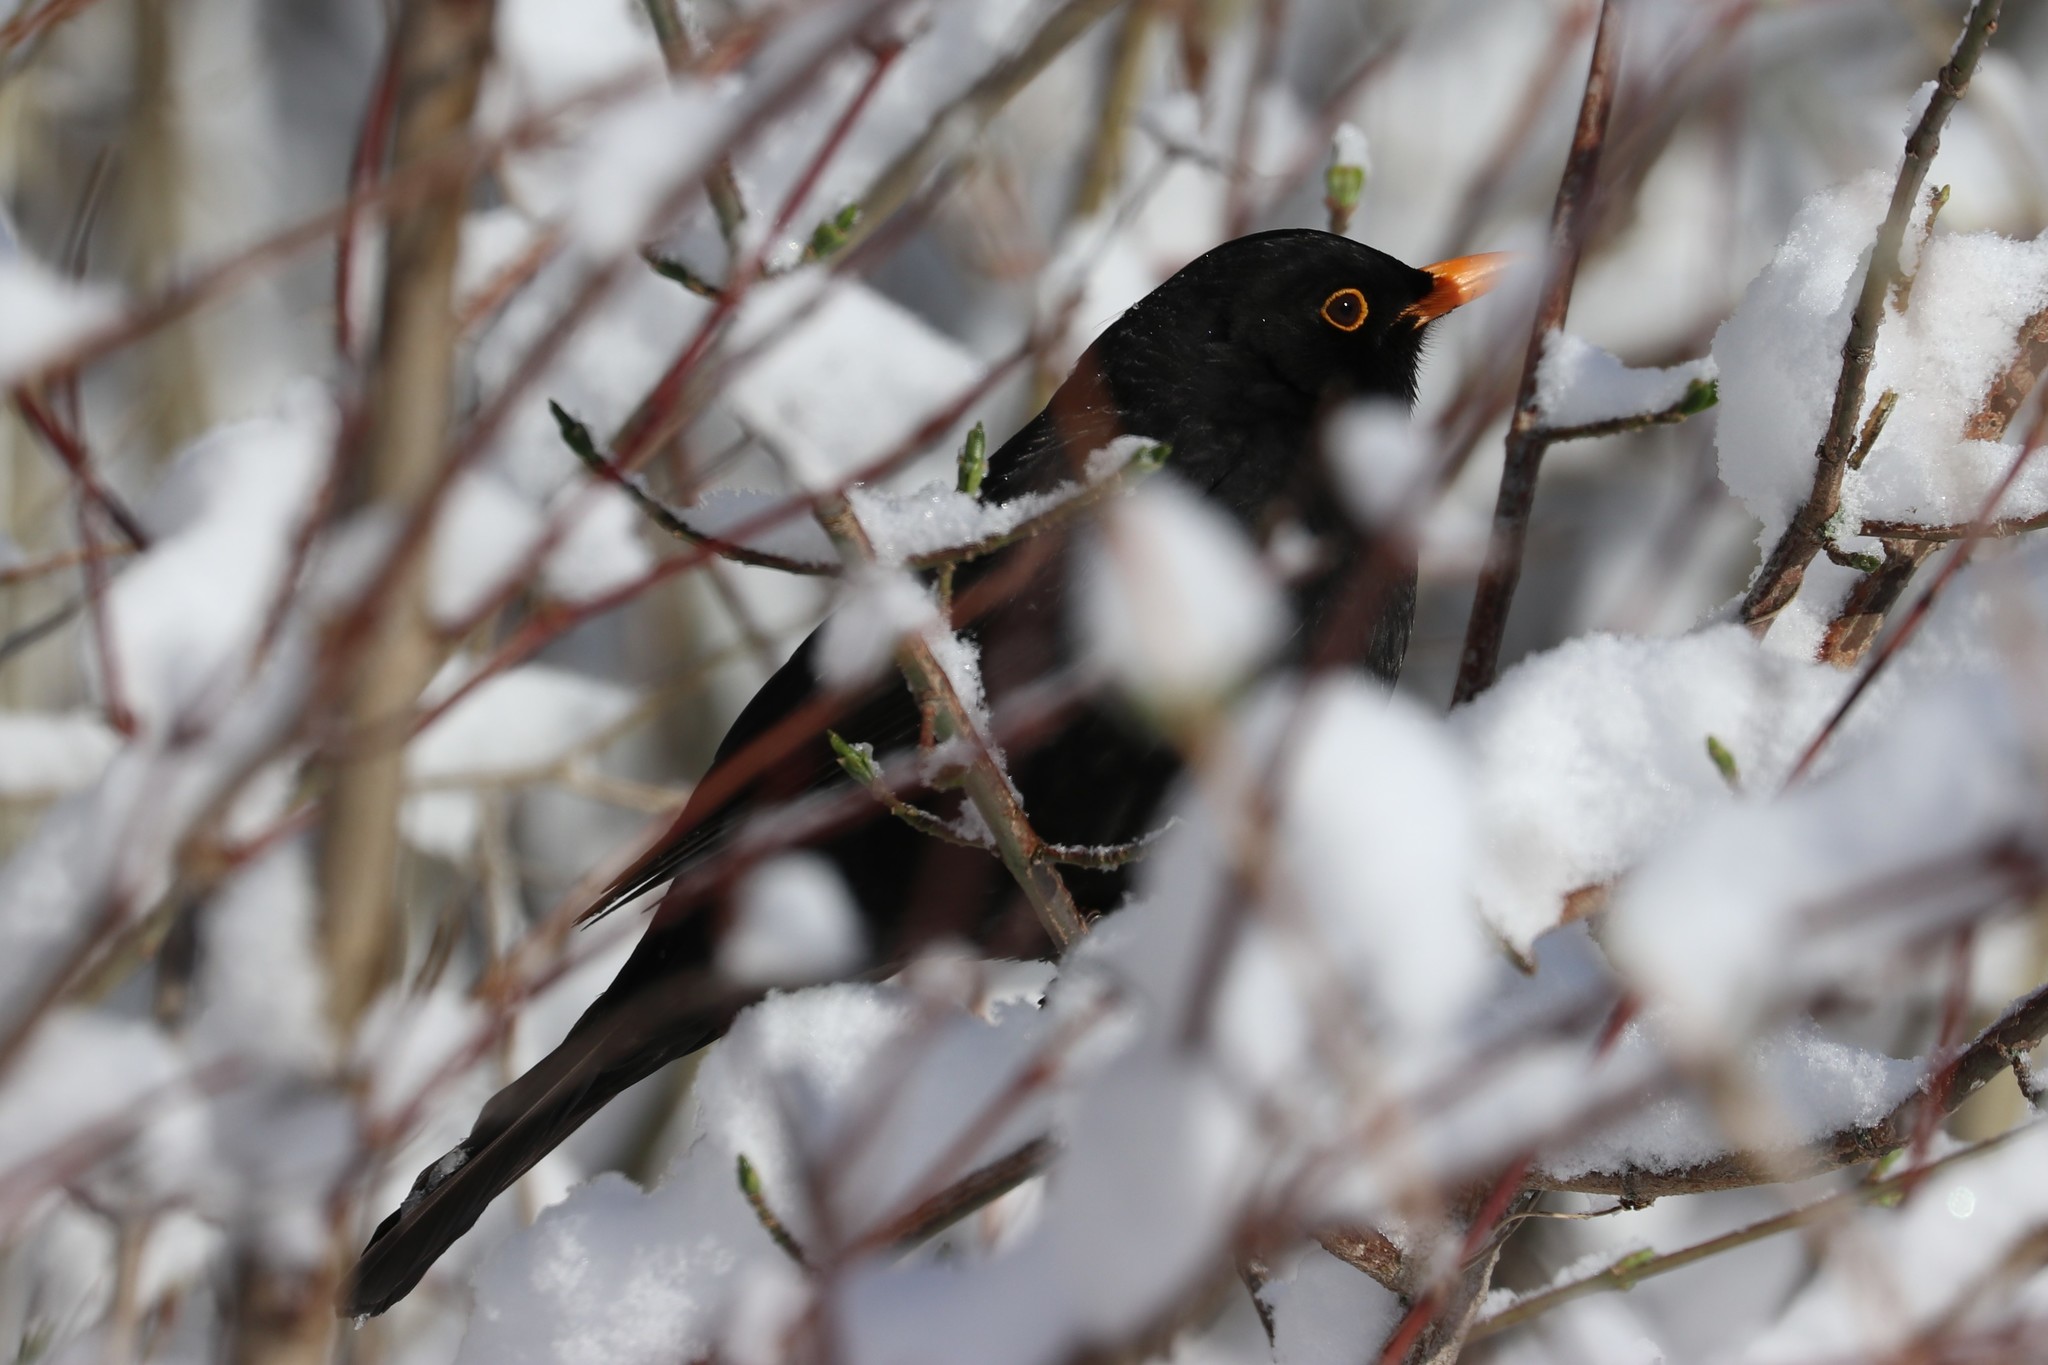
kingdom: Animalia
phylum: Chordata
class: Aves
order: Passeriformes
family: Turdidae
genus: Turdus
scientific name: Turdus merula
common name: Common blackbird
